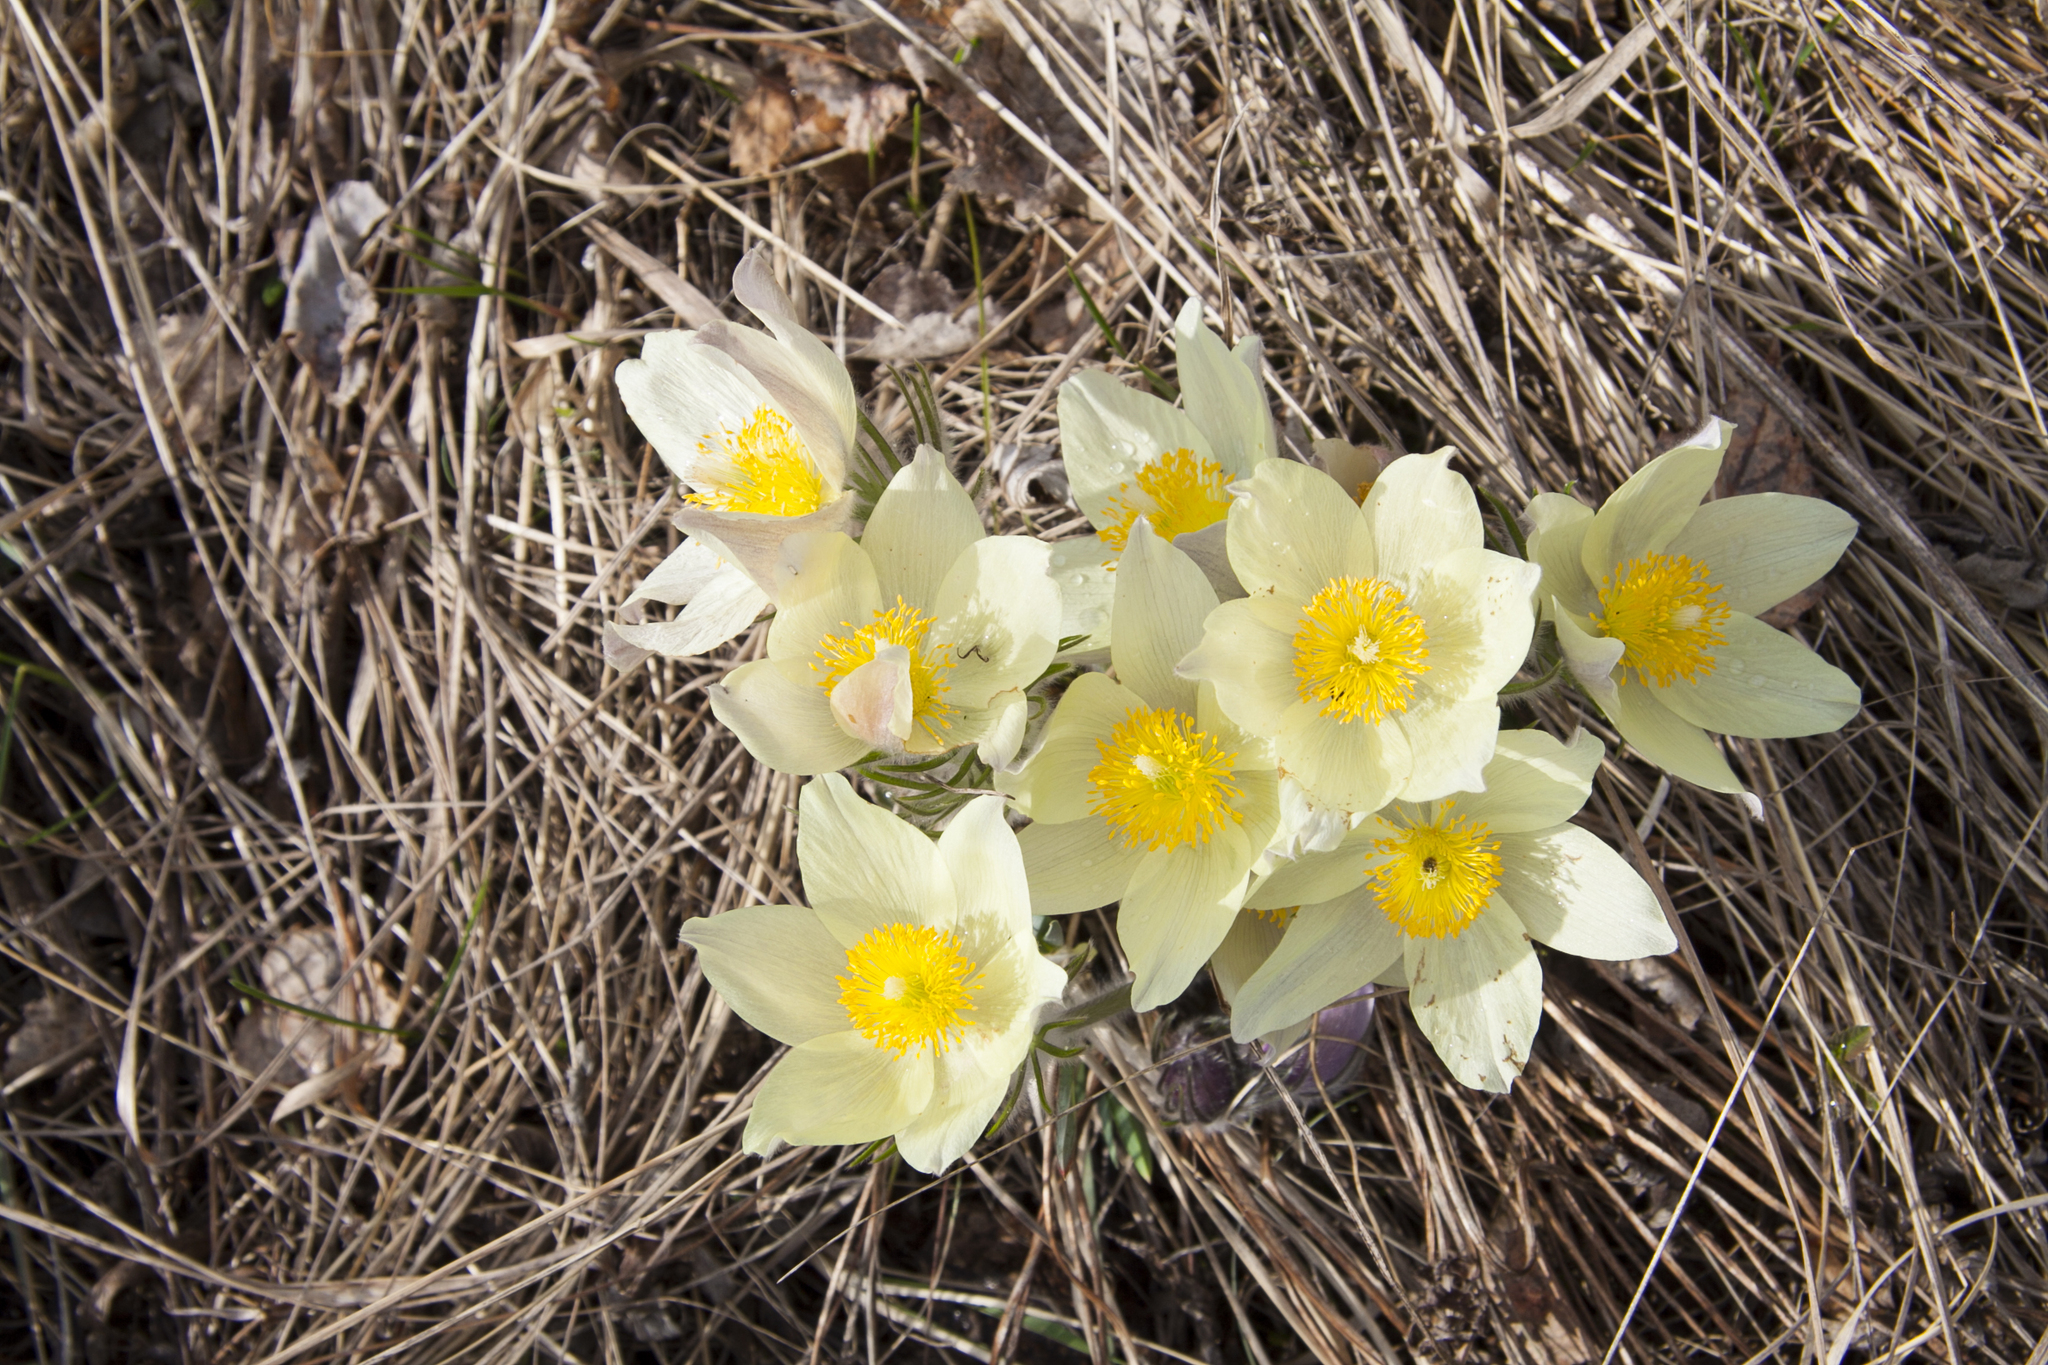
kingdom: Plantae
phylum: Tracheophyta
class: Magnoliopsida
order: Ranunculales
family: Ranunculaceae
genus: Pulsatilla
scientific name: Pulsatilla patens
